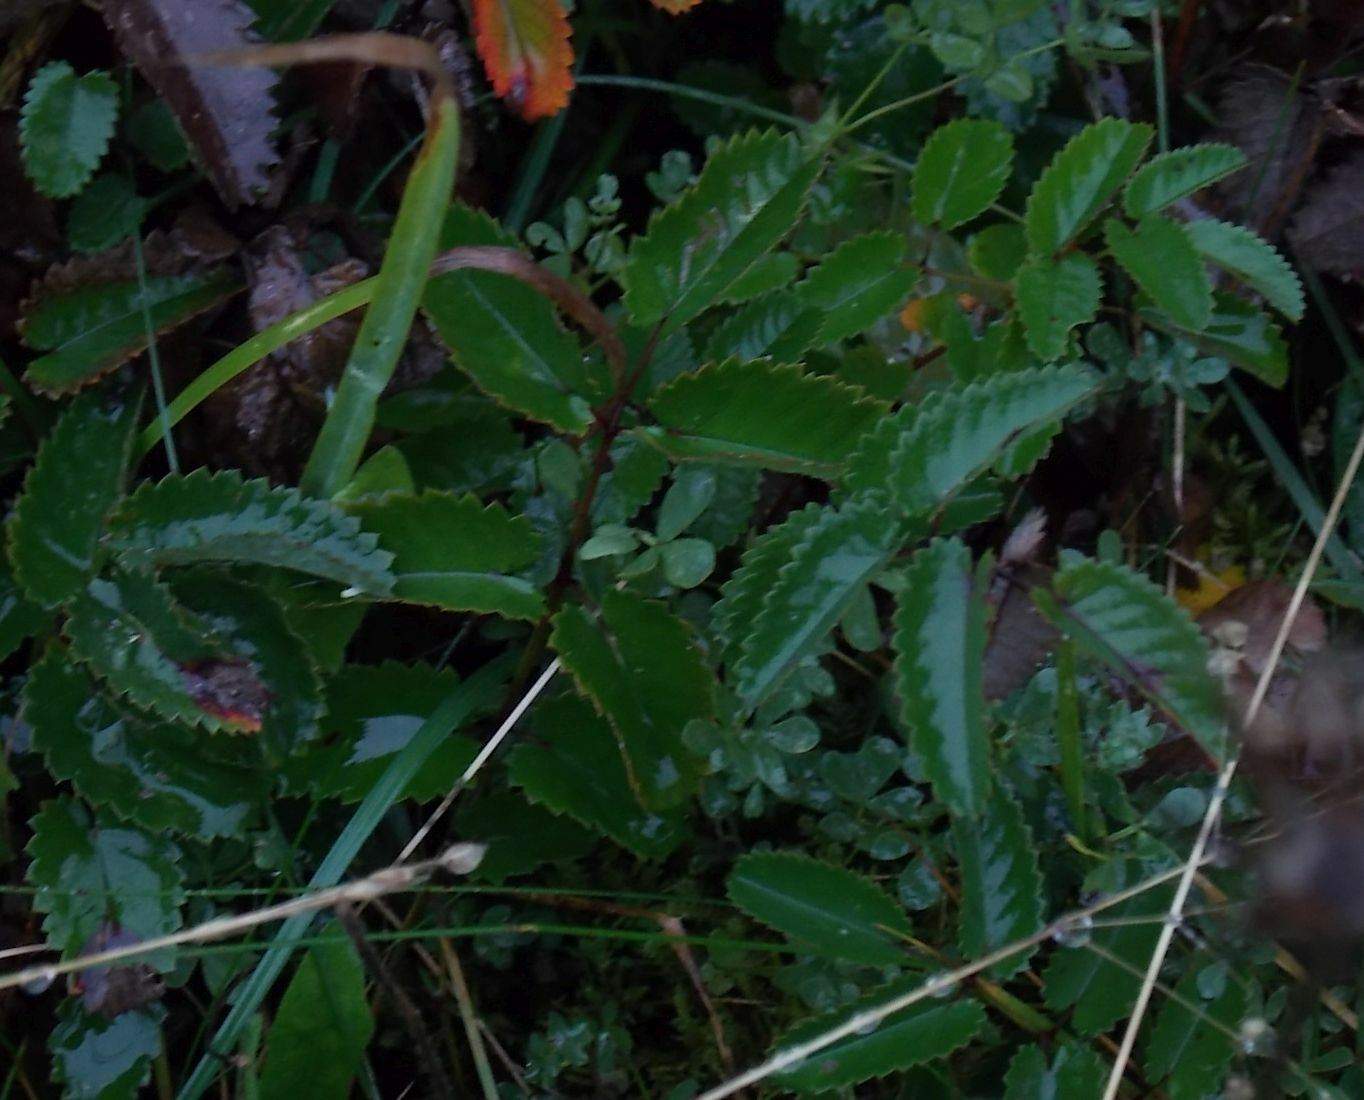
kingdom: Plantae
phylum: Tracheophyta
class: Magnoliopsida
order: Rosales
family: Rosaceae
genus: Sanguisorba
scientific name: Sanguisorba officinalis
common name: Great burnet
